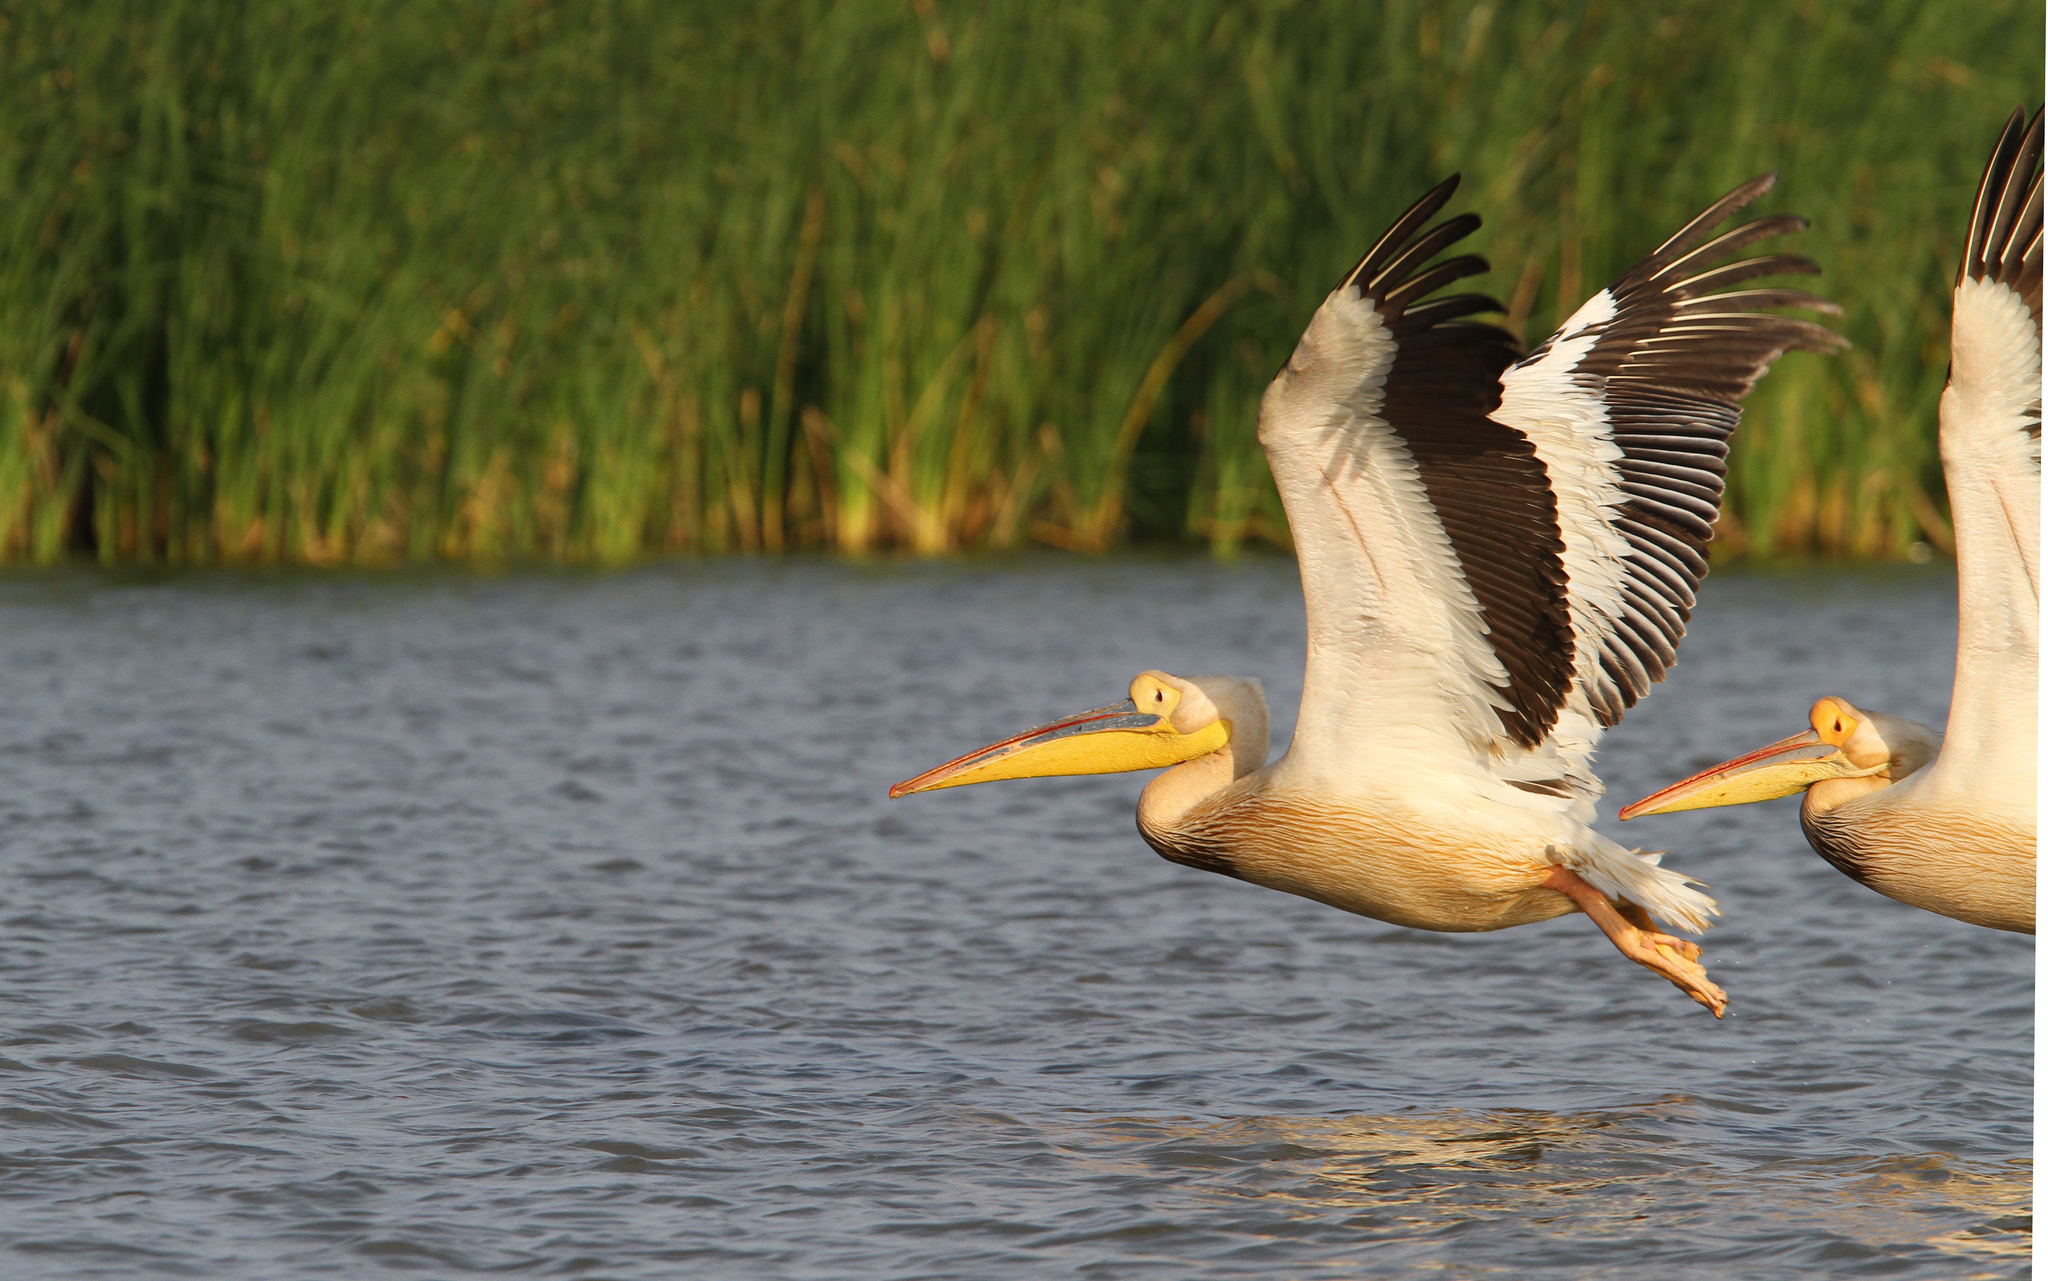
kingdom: Animalia
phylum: Chordata
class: Aves
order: Pelecaniformes
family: Pelecanidae
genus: Pelecanus
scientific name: Pelecanus onocrotalus
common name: Great white pelican
